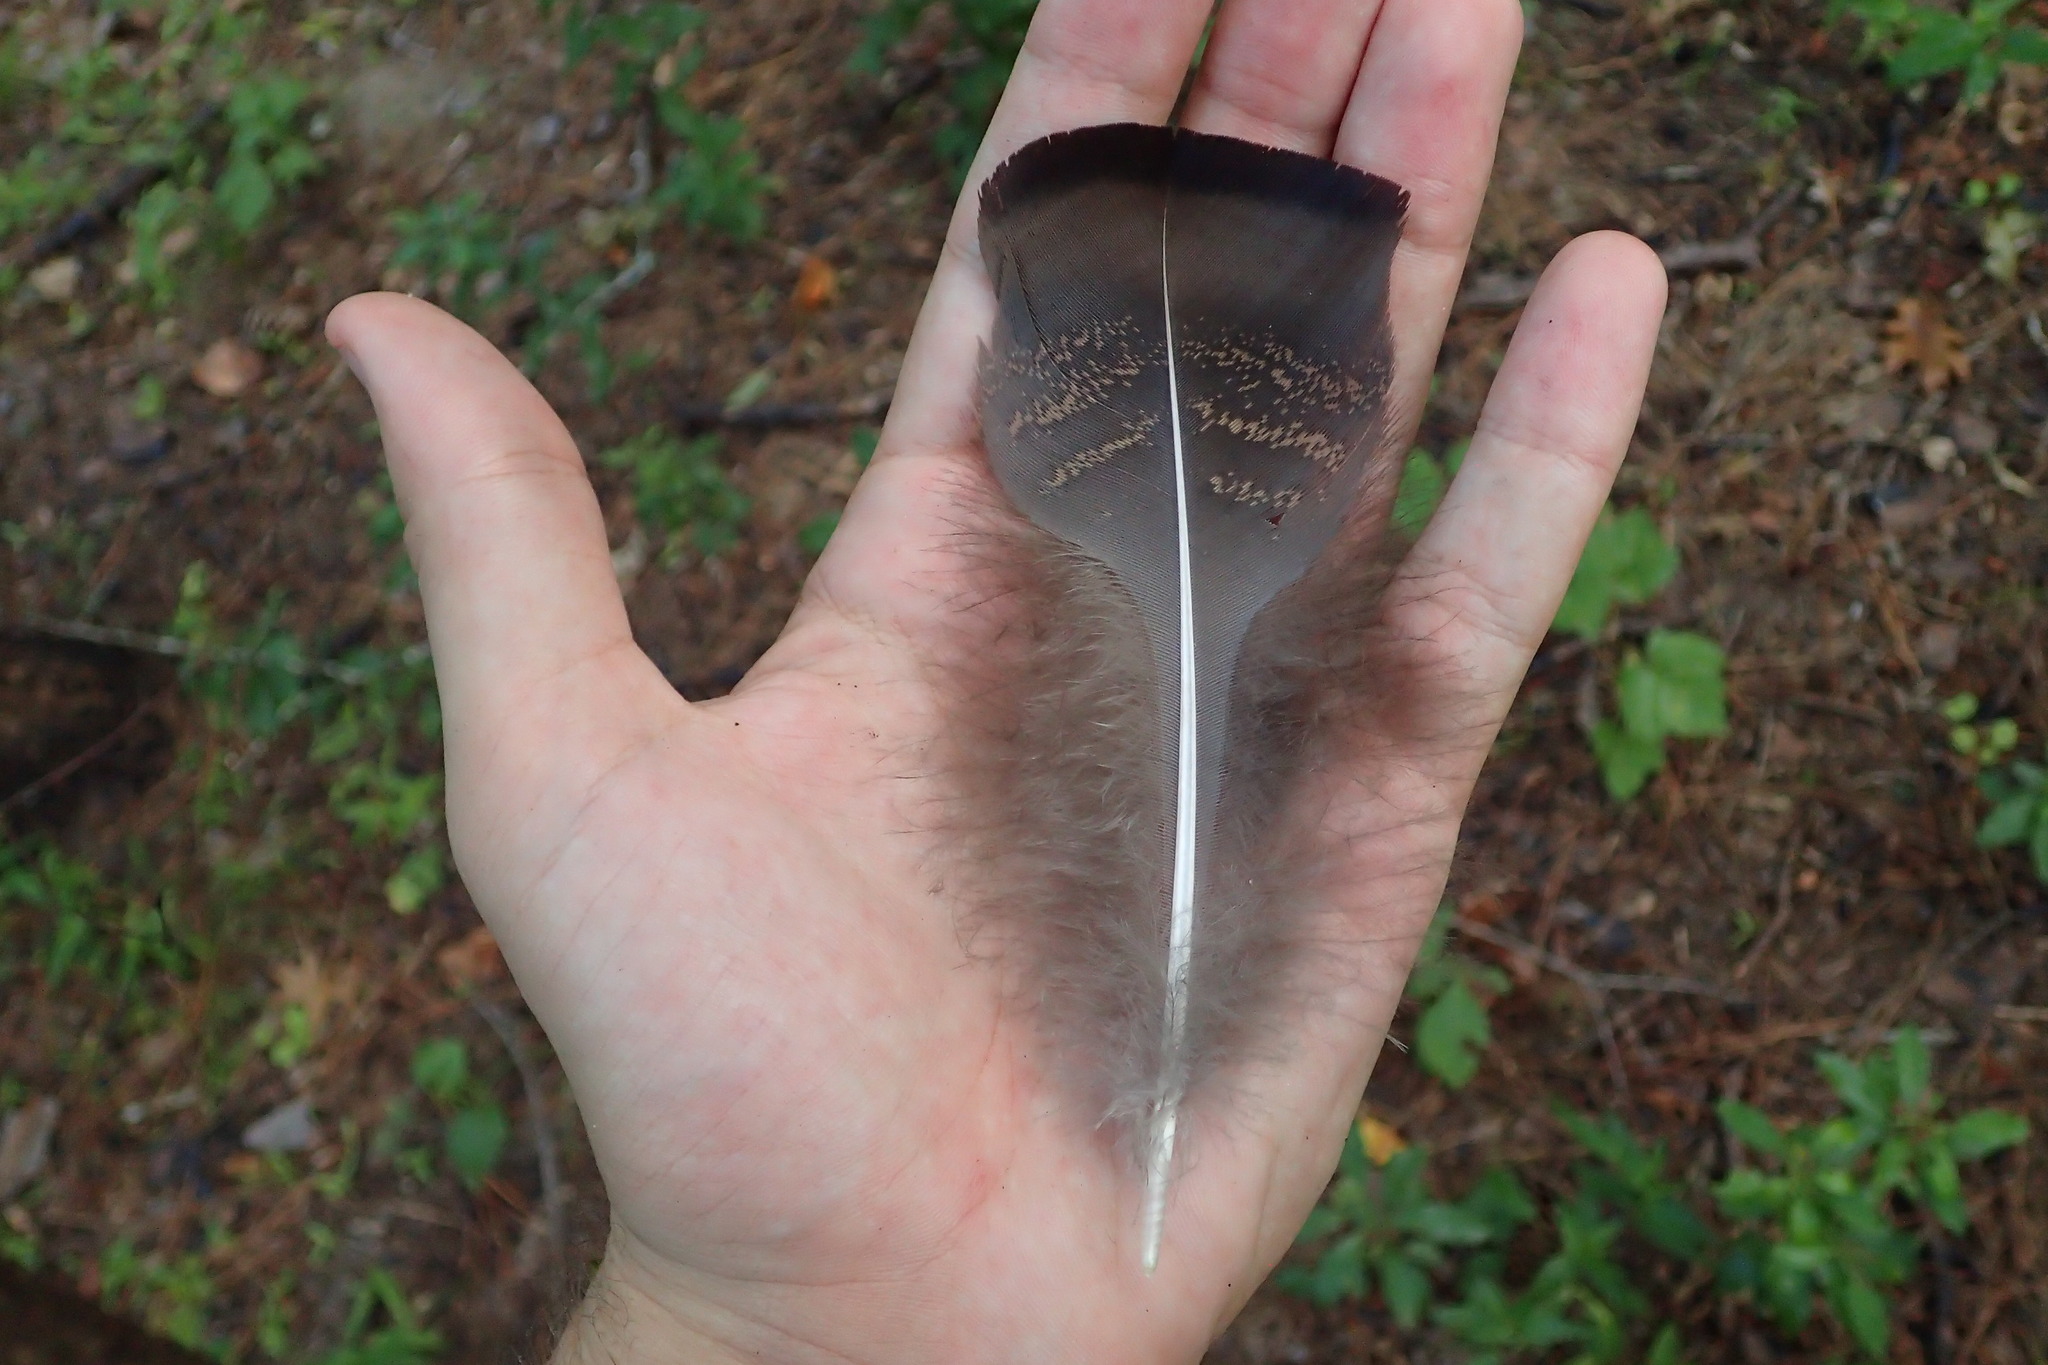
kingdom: Animalia
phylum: Chordata
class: Aves
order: Galliformes
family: Phasianidae
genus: Meleagris
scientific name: Meleagris gallopavo
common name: Wild turkey
